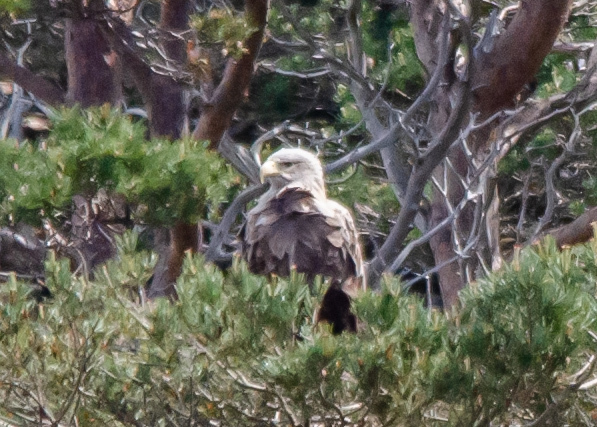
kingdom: Animalia
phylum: Chordata
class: Aves
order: Accipitriformes
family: Accipitridae
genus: Haliaeetus
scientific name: Haliaeetus albicilla
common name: White-tailed eagle
